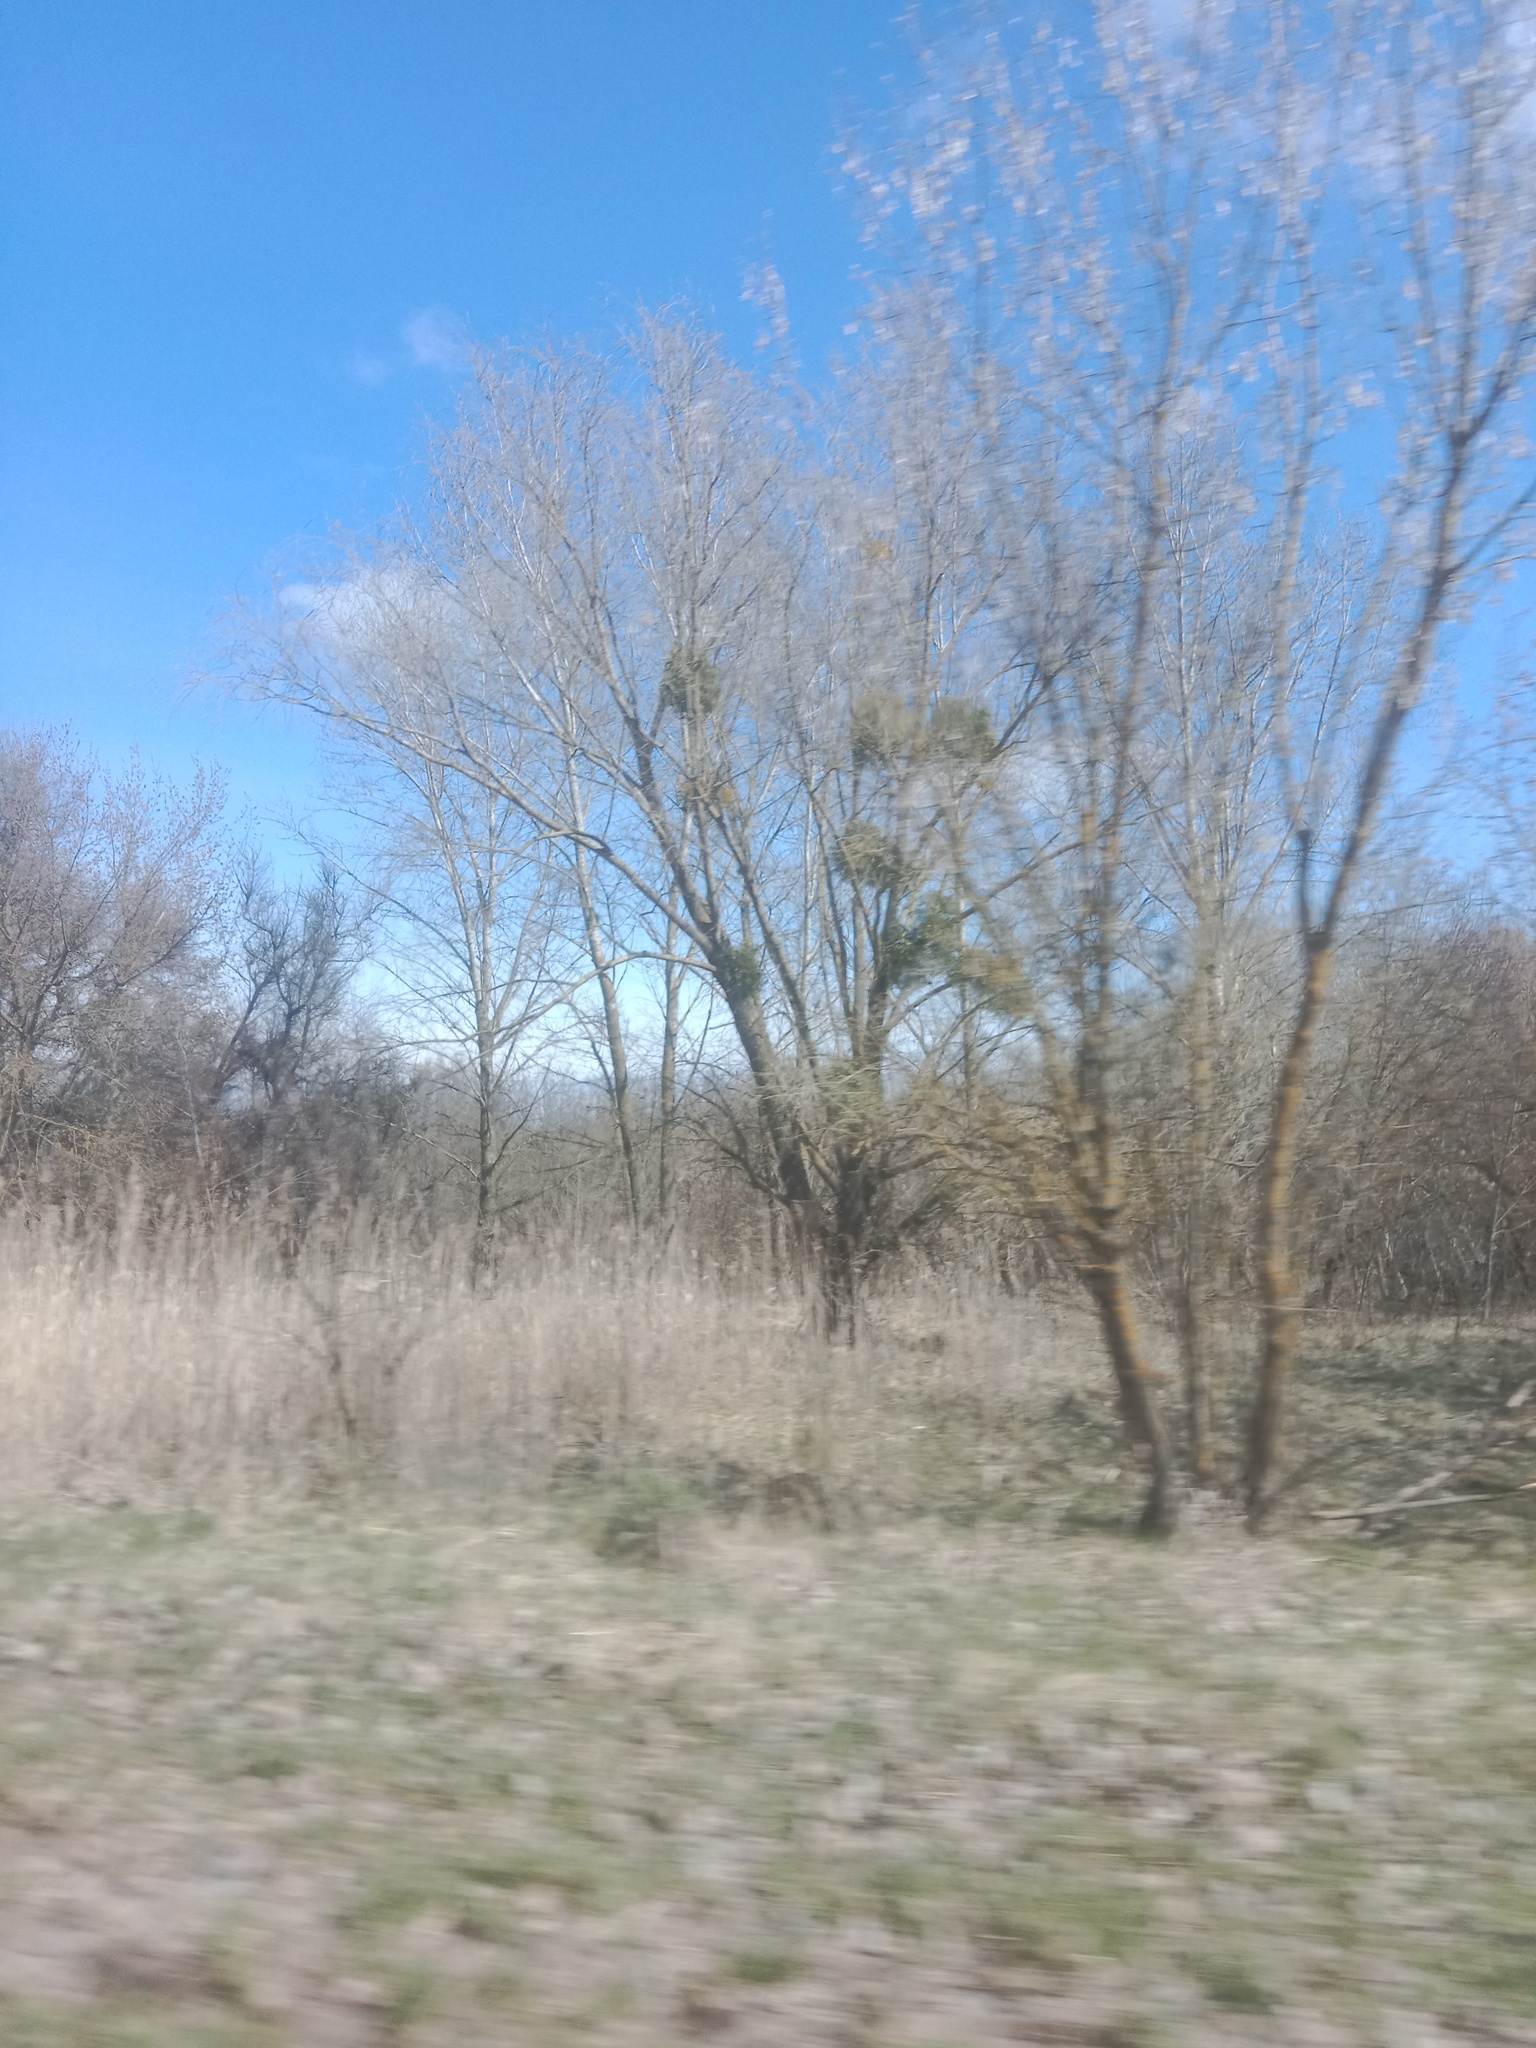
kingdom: Plantae
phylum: Tracheophyta
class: Magnoliopsida
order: Santalales
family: Viscaceae
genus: Viscum
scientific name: Viscum album
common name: Mistletoe
